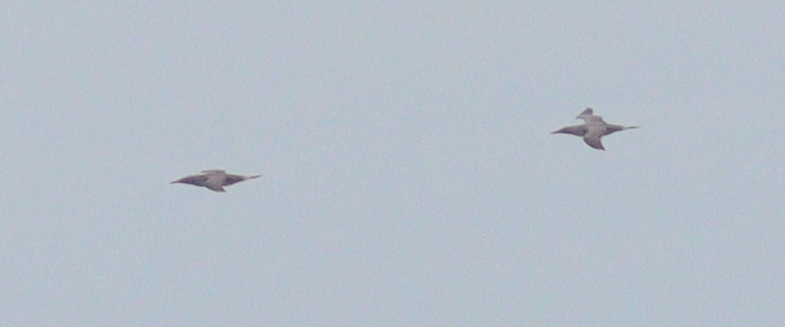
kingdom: Animalia
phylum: Chordata
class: Aves
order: Suliformes
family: Sulidae
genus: Morus
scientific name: Morus bassanus
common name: Northern gannet
